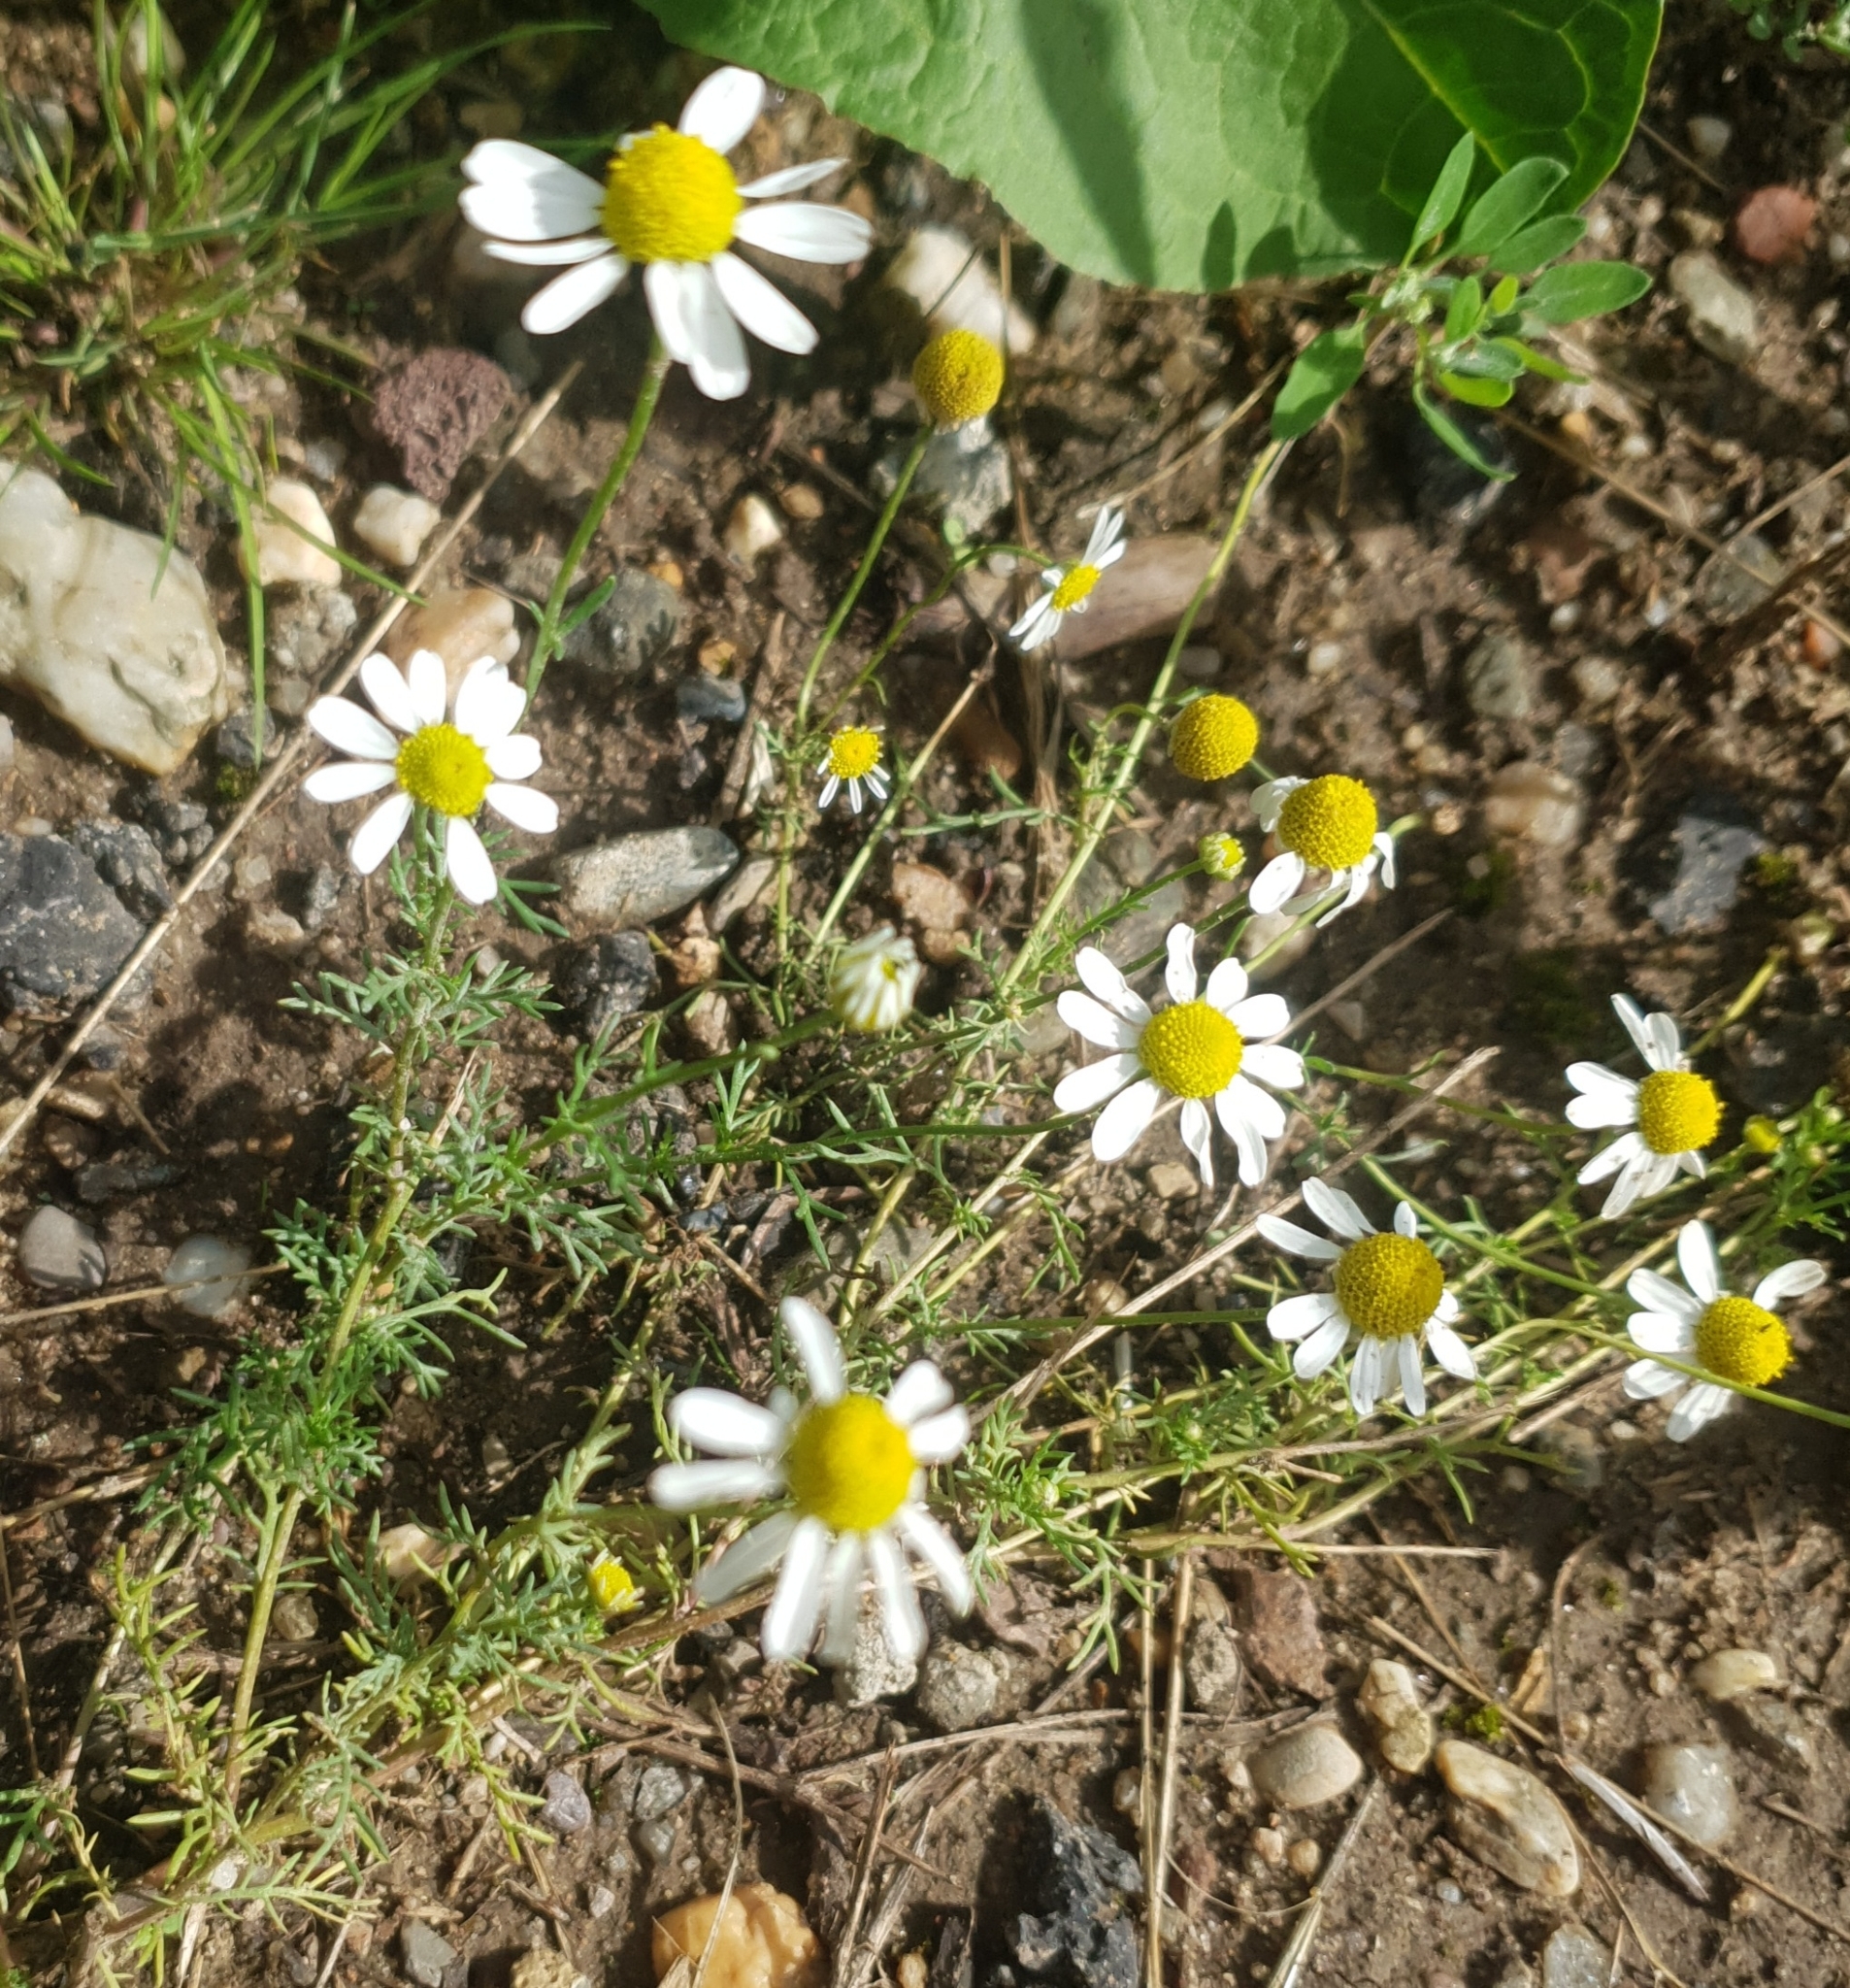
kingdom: Plantae
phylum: Tracheophyta
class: Magnoliopsida
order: Asterales
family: Asteraceae
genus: Matricaria
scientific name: Matricaria chamomilla
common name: Scented mayweed
